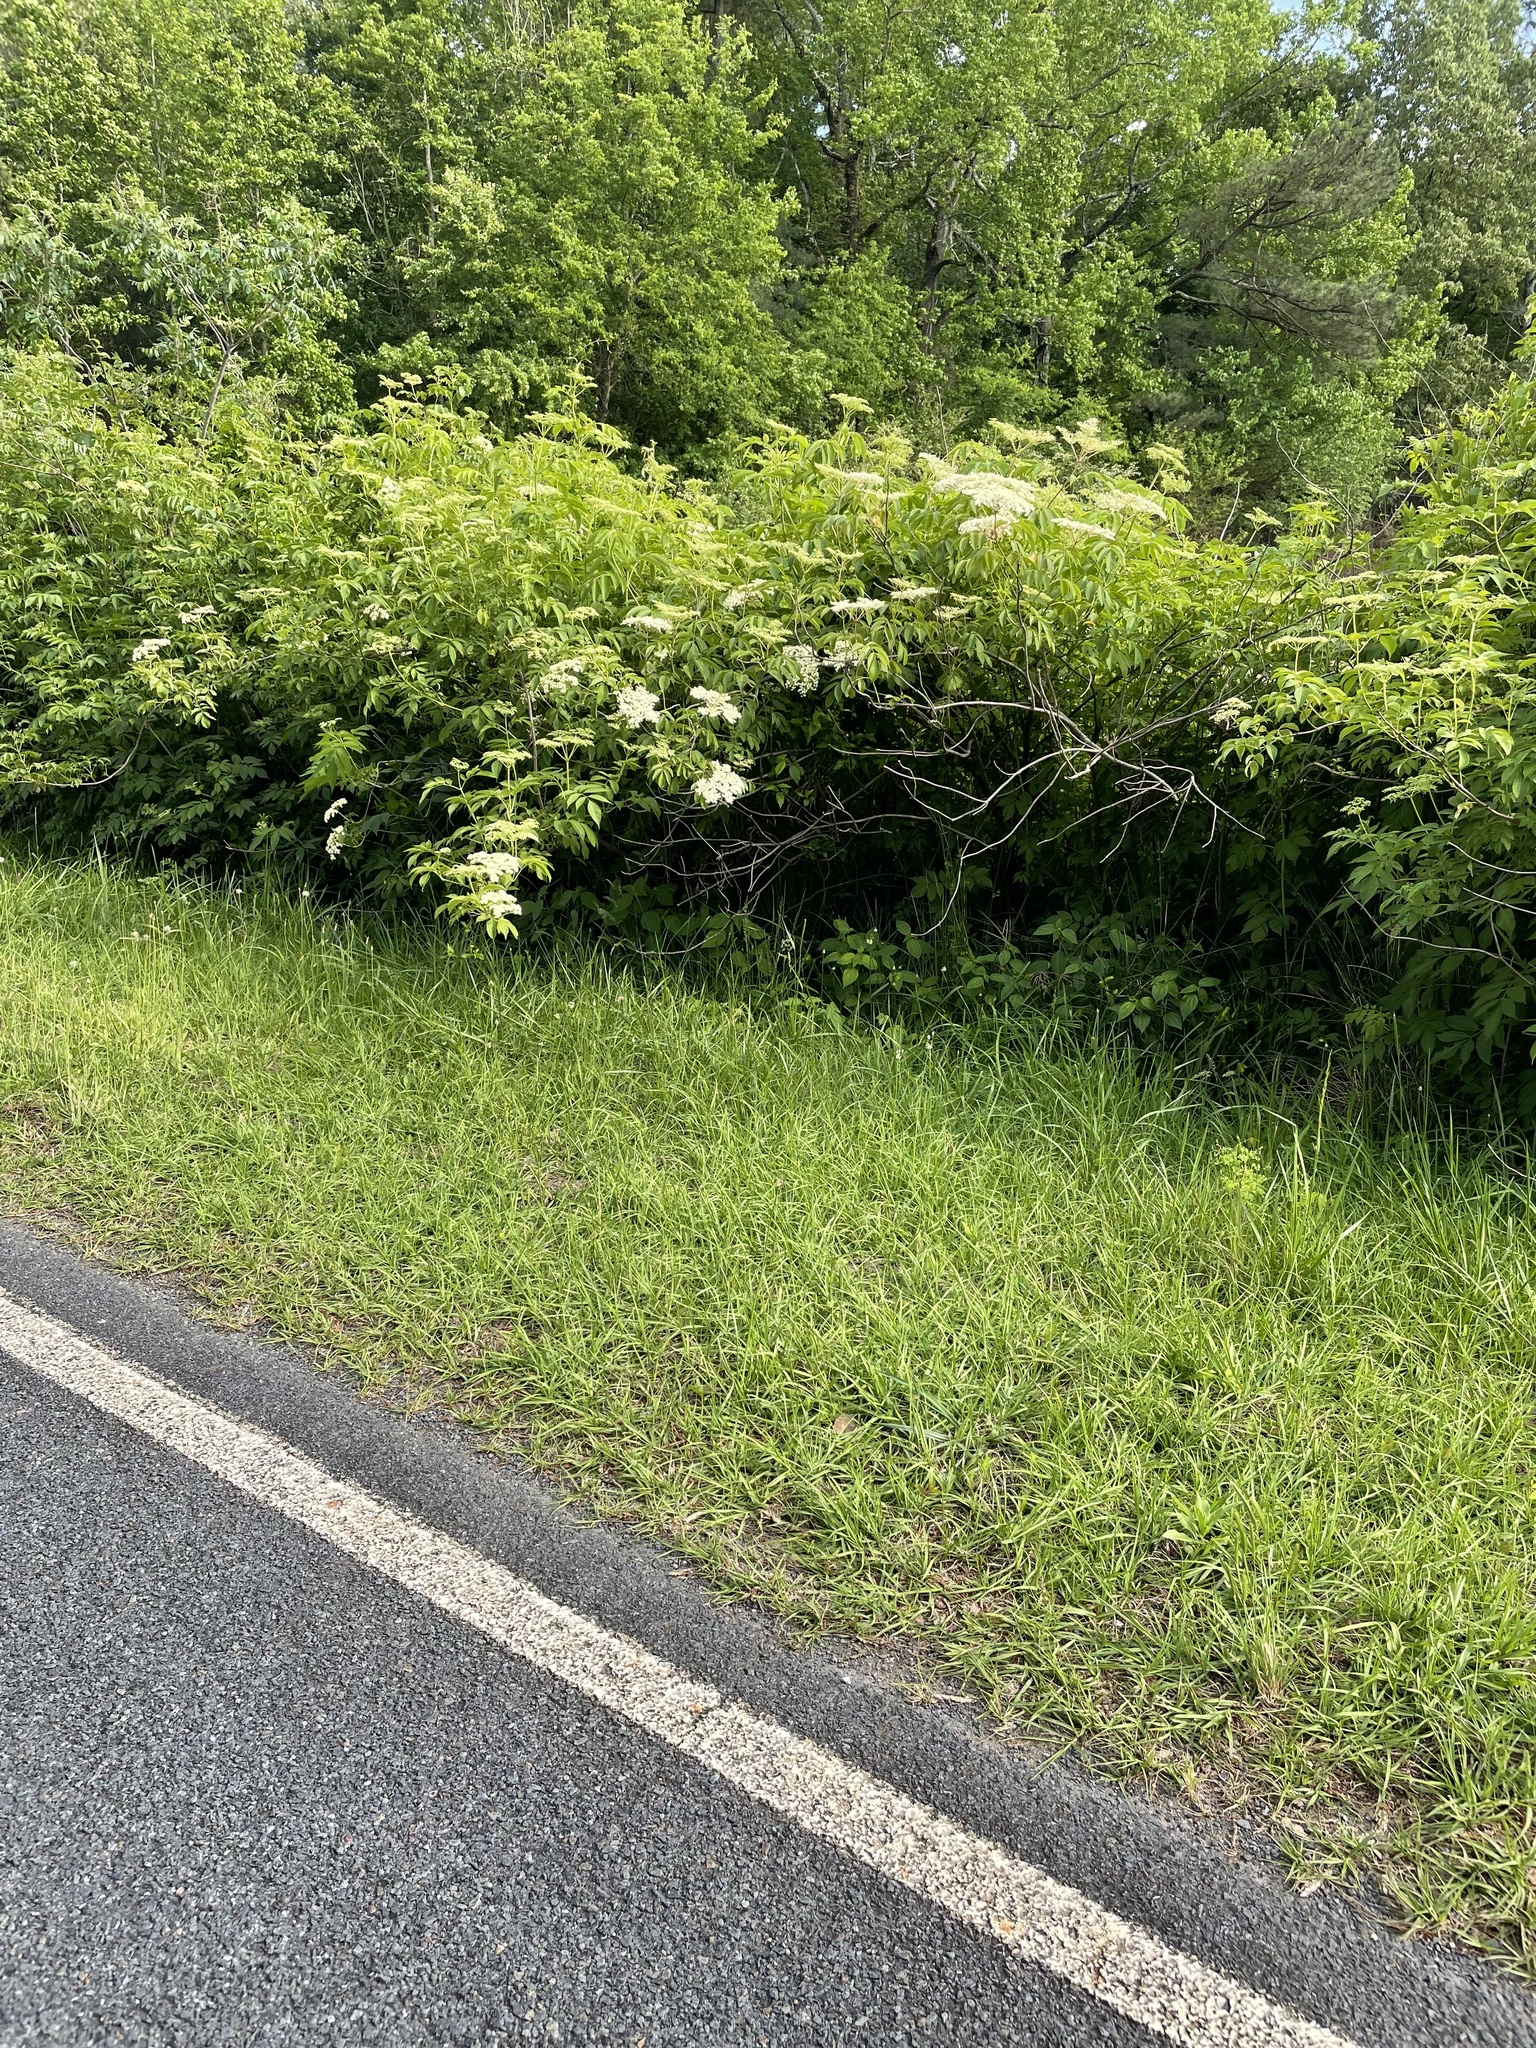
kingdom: Plantae
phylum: Tracheophyta
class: Magnoliopsida
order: Dipsacales
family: Viburnaceae
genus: Sambucus
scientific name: Sambucus canadensis
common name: American elder
